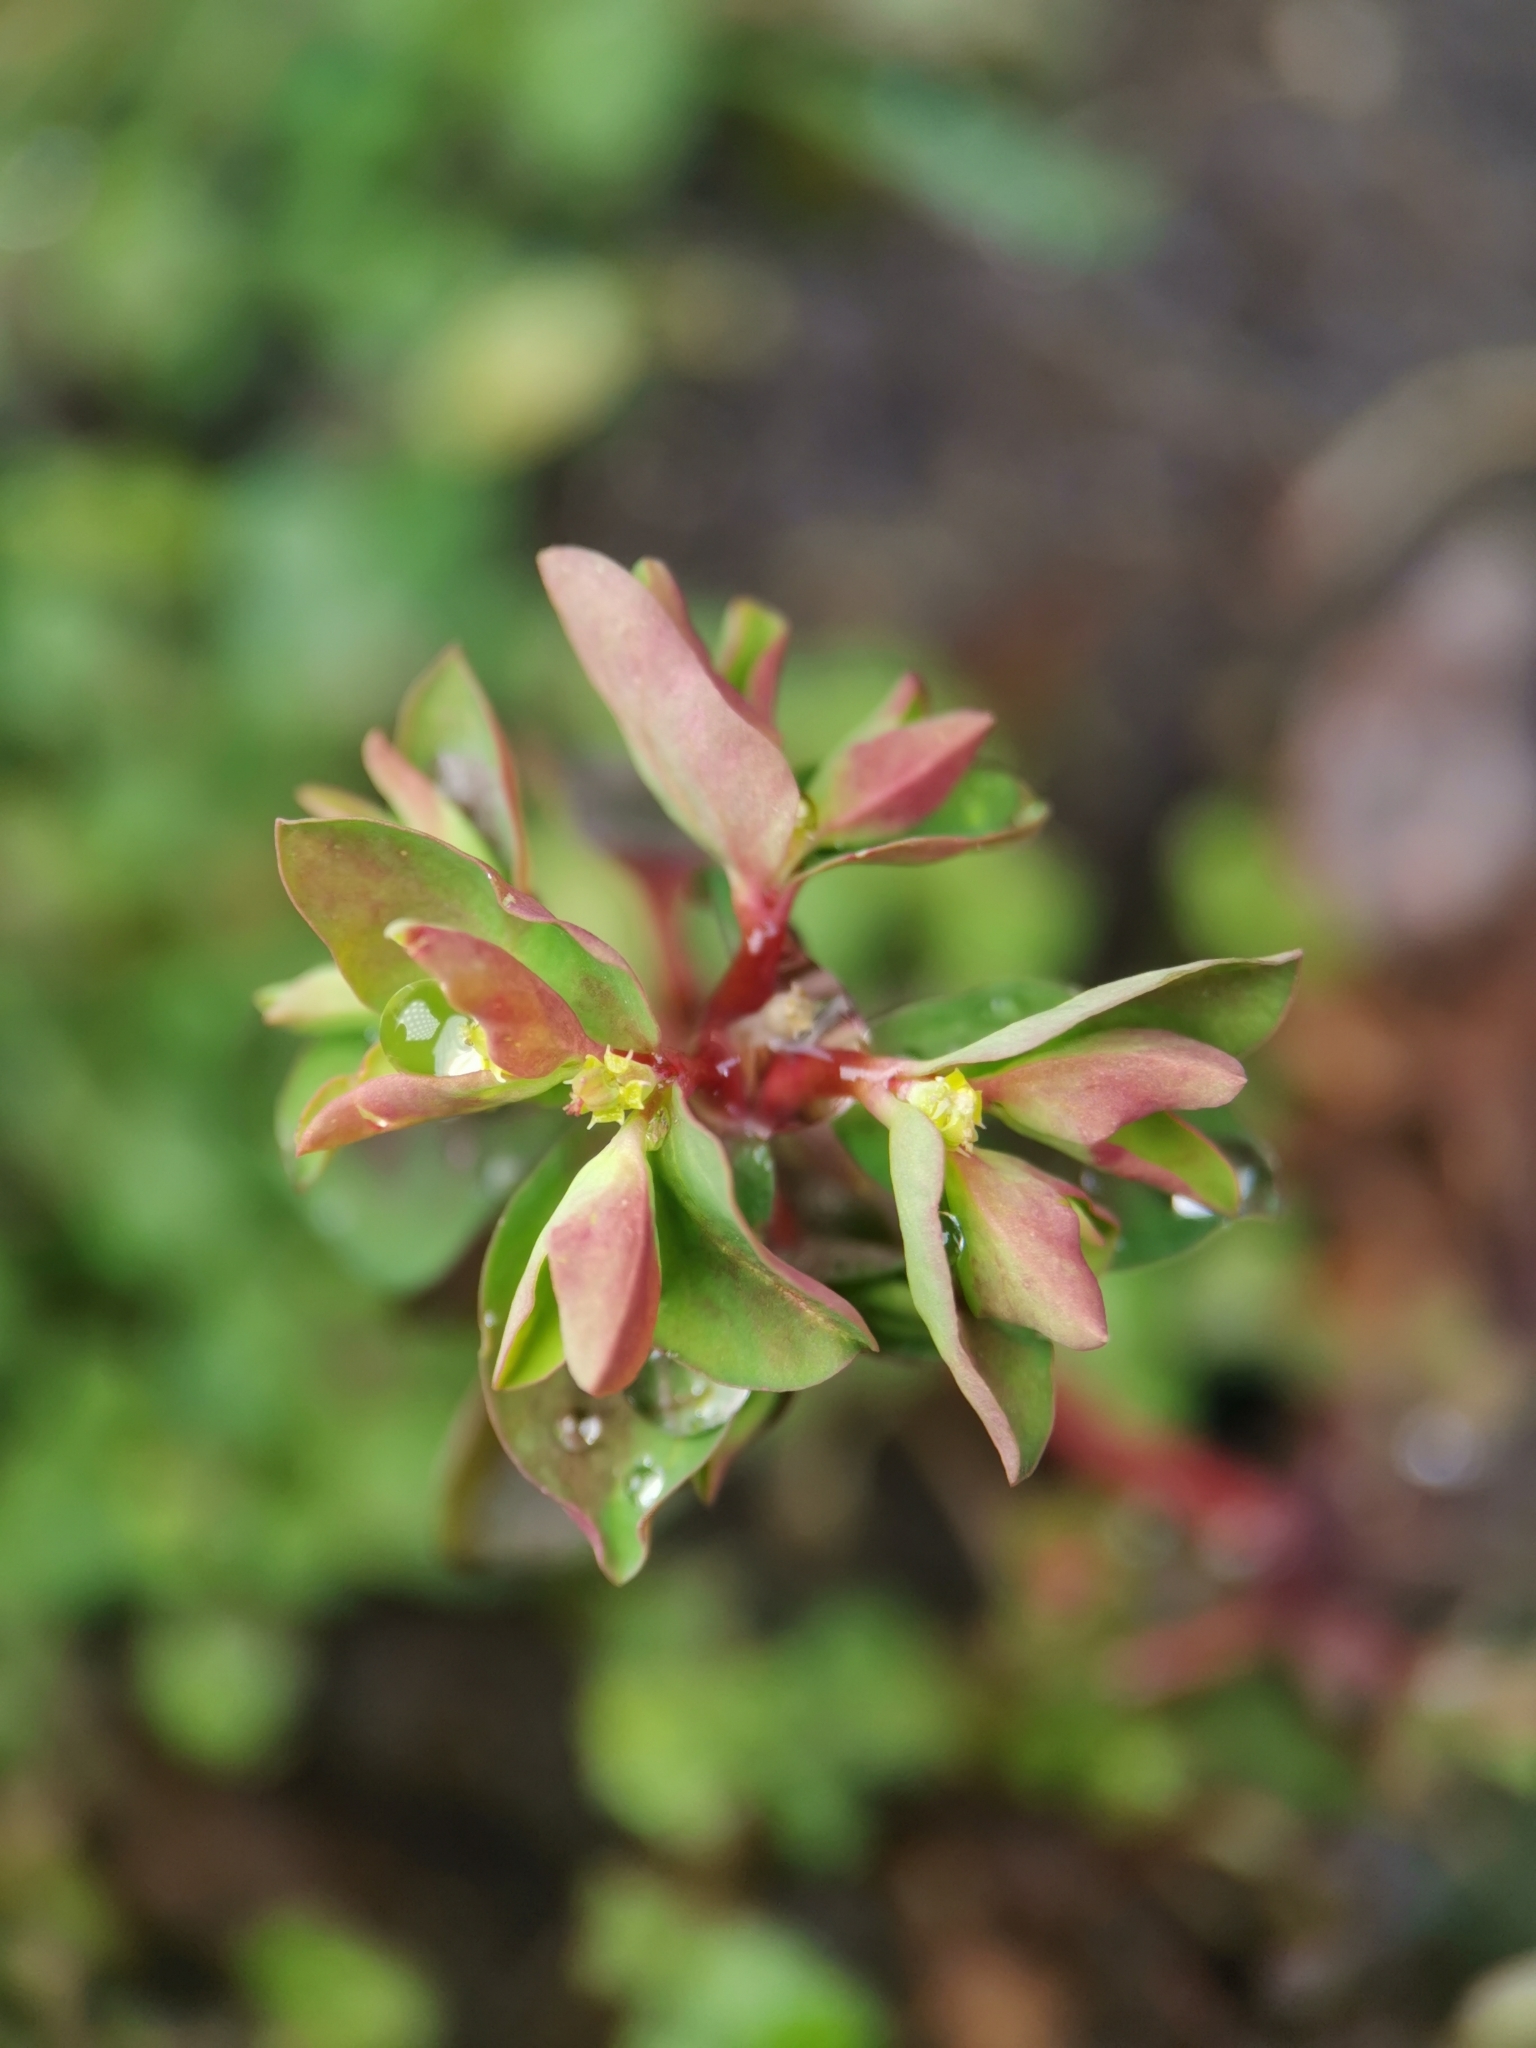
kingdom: Plantae
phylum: Tracheophyta
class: Magnoliopsida
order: Malpighiales
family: Euphorbiaceae
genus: Euphorbia
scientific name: Euphorbia peplus
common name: Petty spurge
